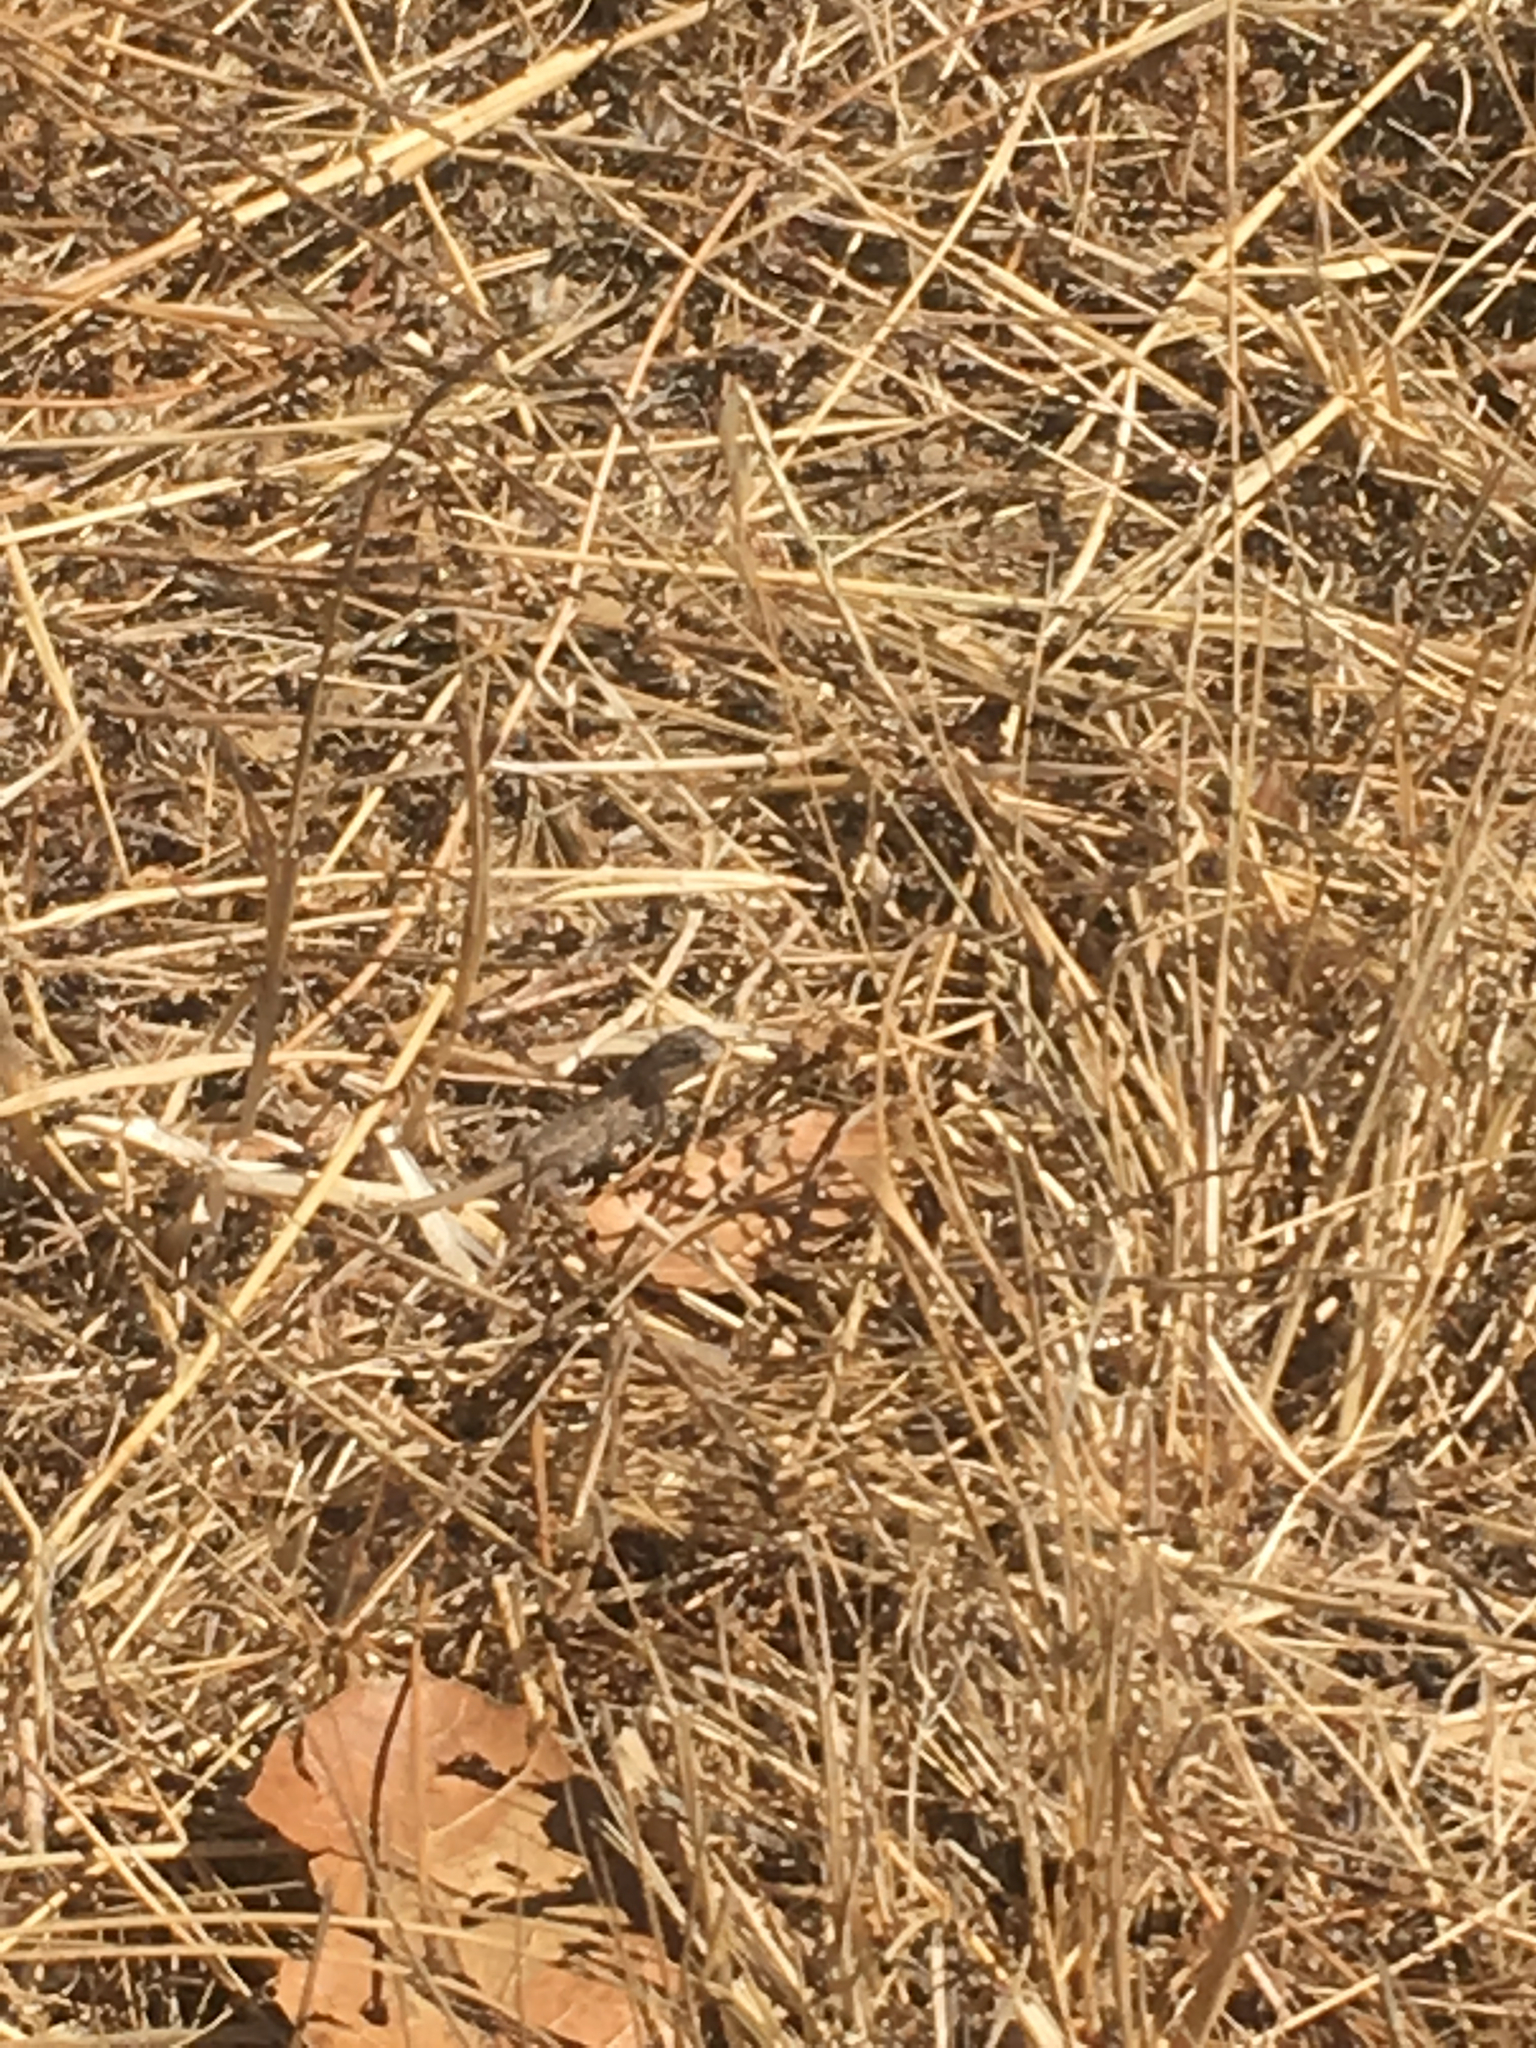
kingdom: Animalia
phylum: Chordata
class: Squamata
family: Phrynosomatidae
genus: Sceloporus
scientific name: Sceloporus occidentalis
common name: Western fence lizard
